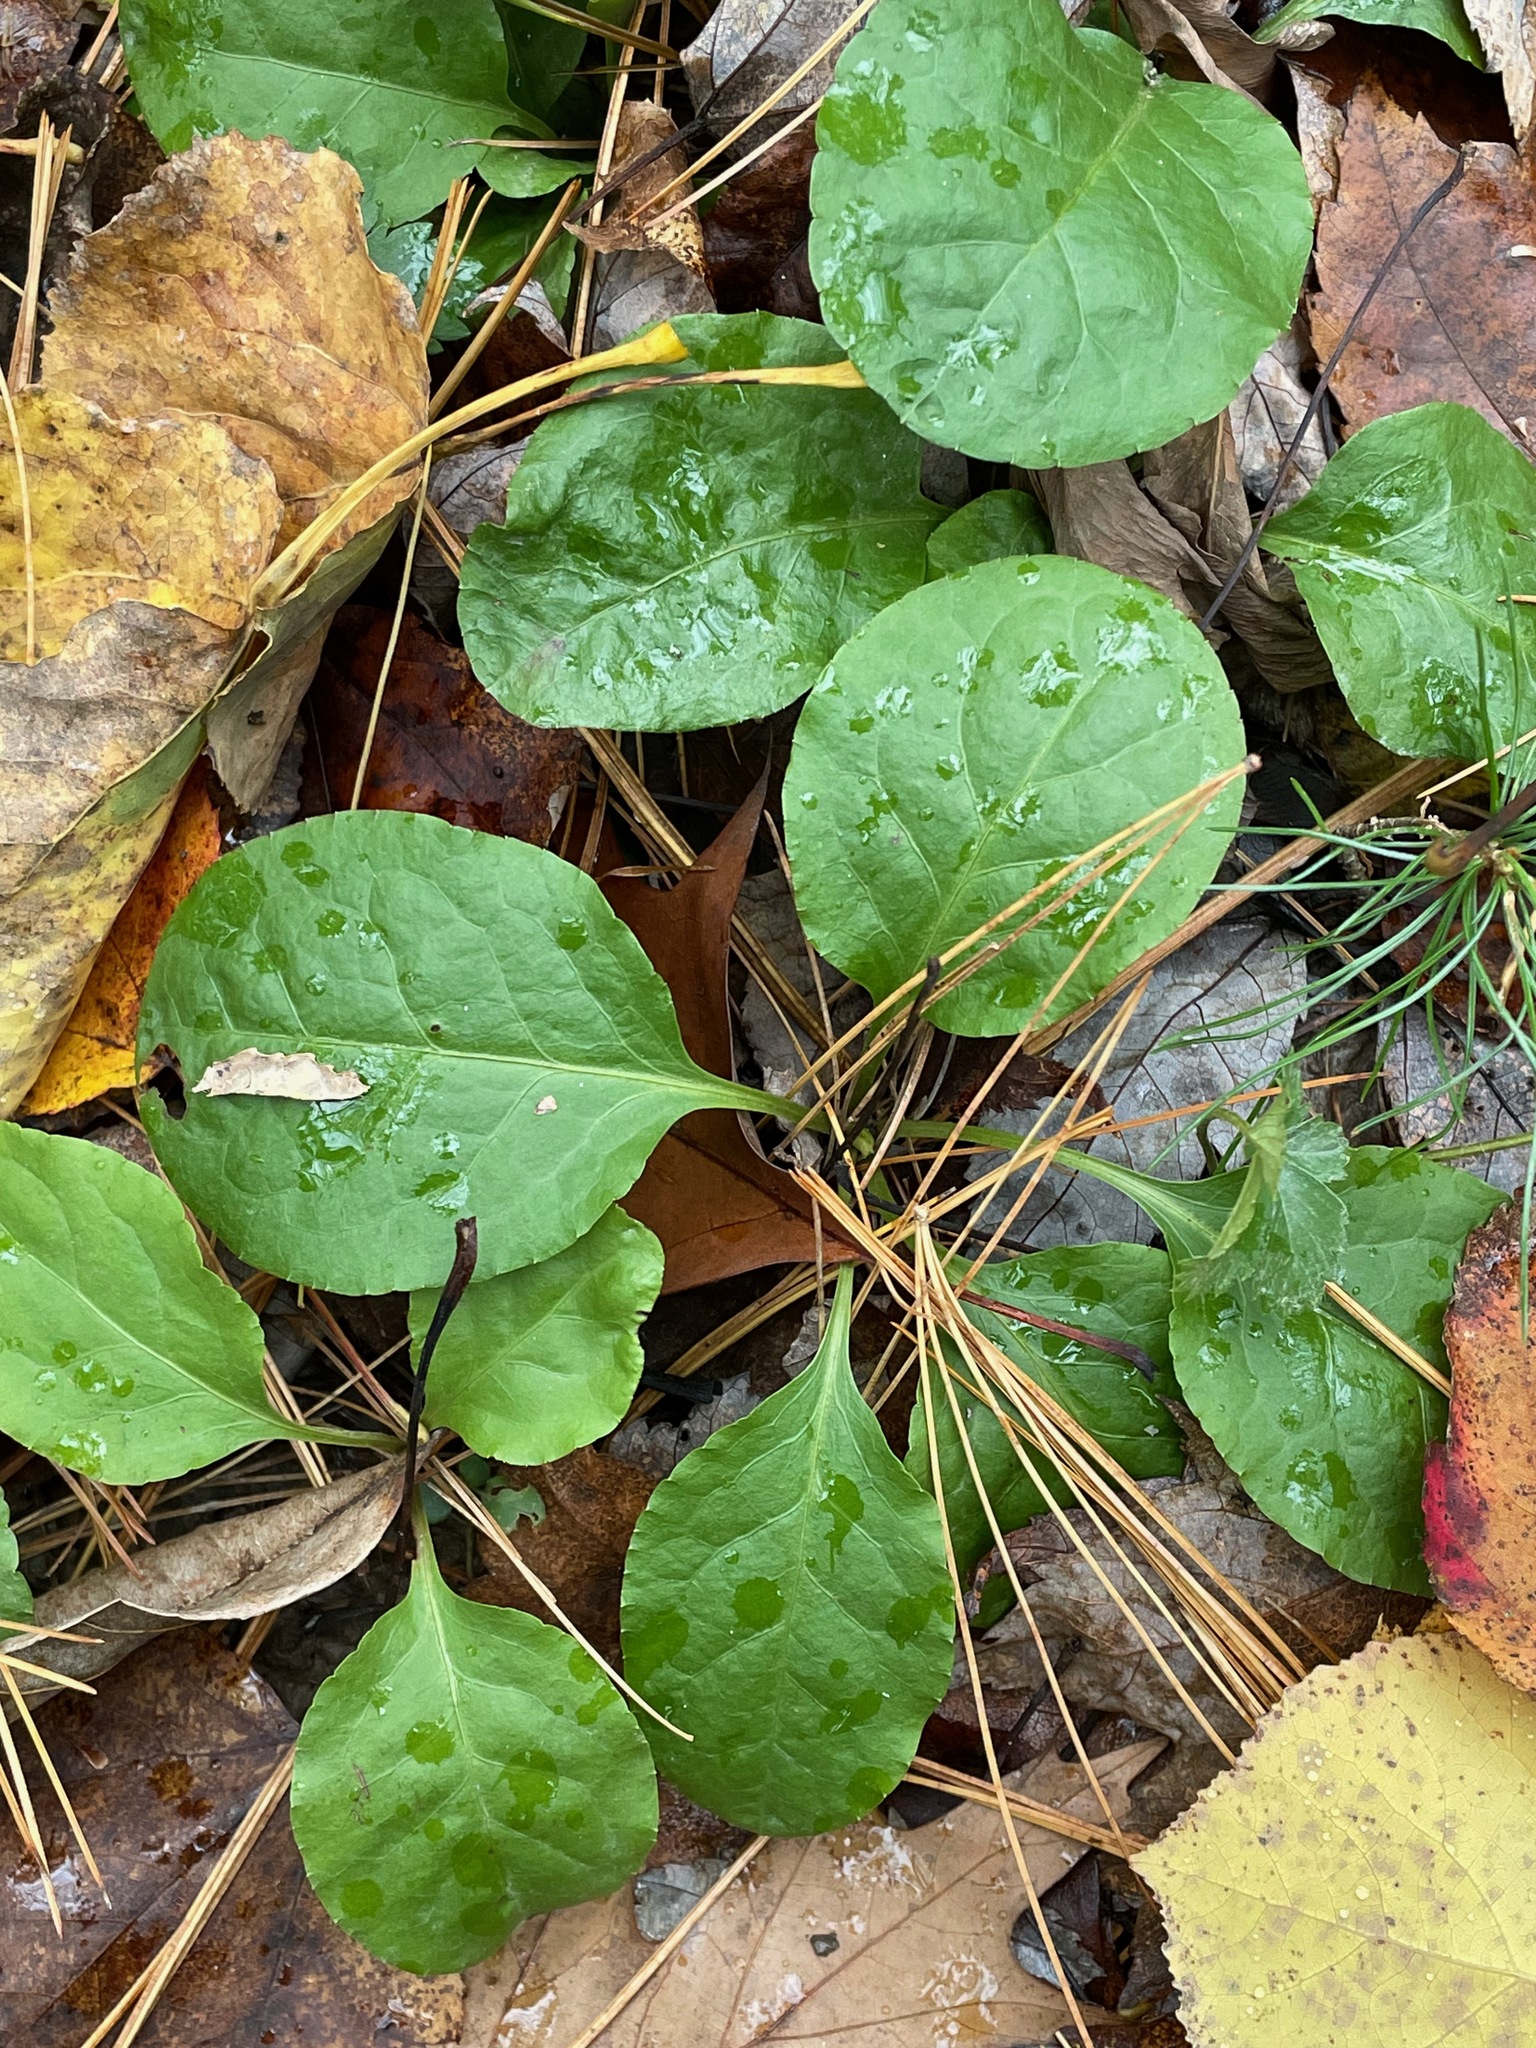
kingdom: Plantae
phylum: Tracheophyta
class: Magnoliopsida
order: Ericales
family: Ericaceae
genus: Pyrola
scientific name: Pyrola elliptica
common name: Shinleaf
